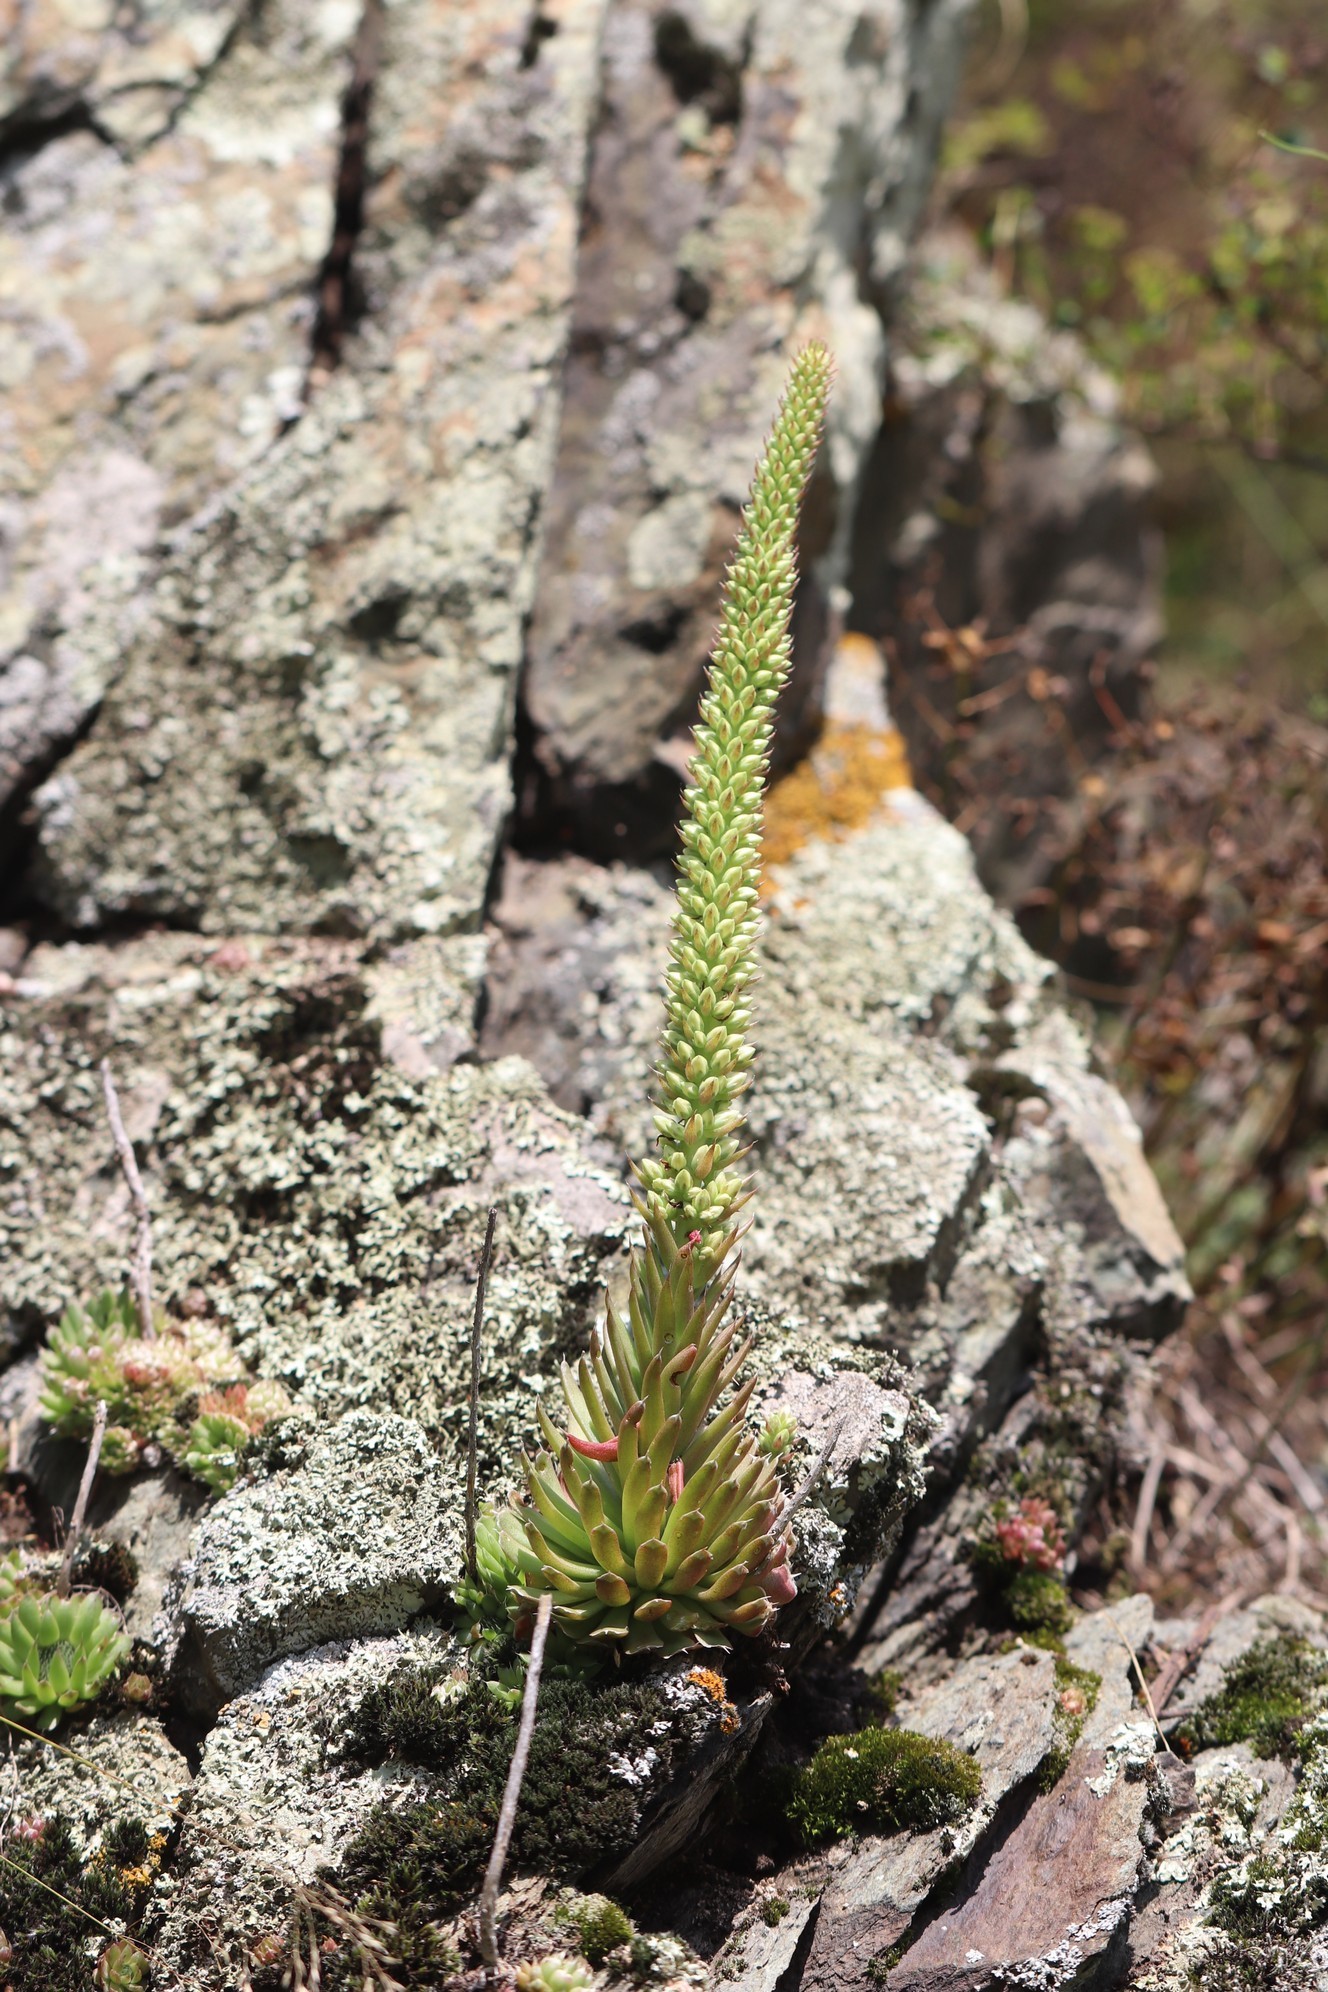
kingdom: Plantae
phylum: Tracheophyta
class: Magnoliopsida
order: Saxifragales
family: Crassulaceae
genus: Orostachys
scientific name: Orostachys spinosa
